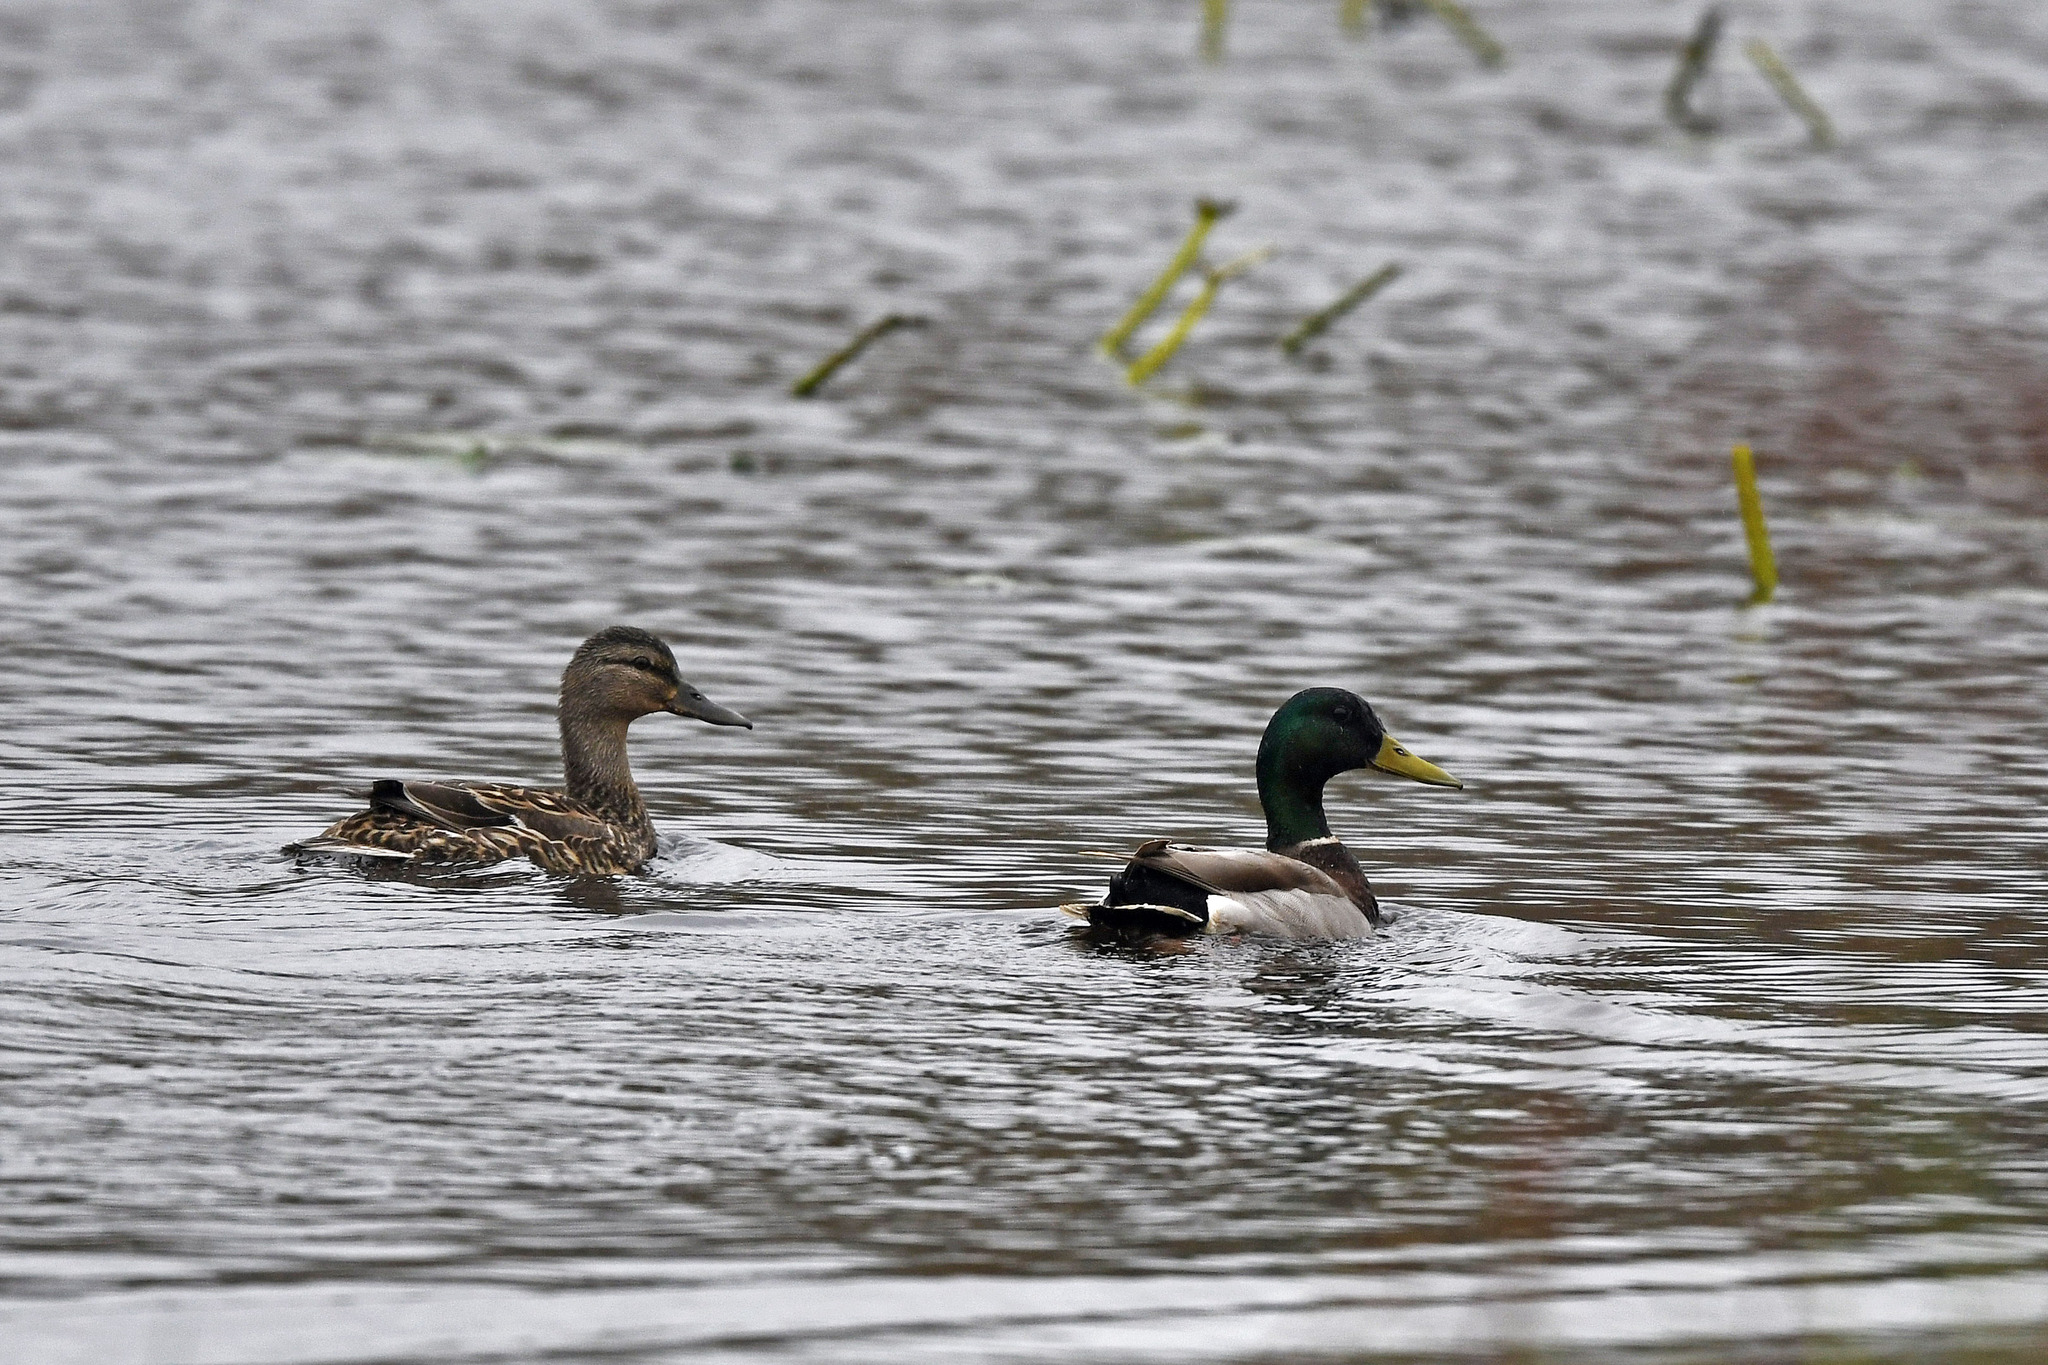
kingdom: Animalia
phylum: Chordata
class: Aves
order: Anseriformes
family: Anatidae
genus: Anas
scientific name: Anas platyrhynchos
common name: Mallard
